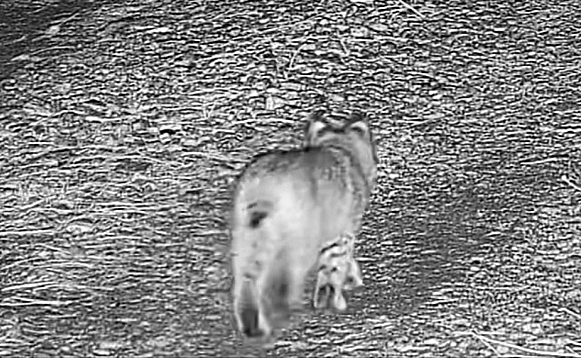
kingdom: Animalia
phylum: Chordata
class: Mammalia
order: Carnivora
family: Felidae
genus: Lynx
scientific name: Lynx rufus
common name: Bobcat
